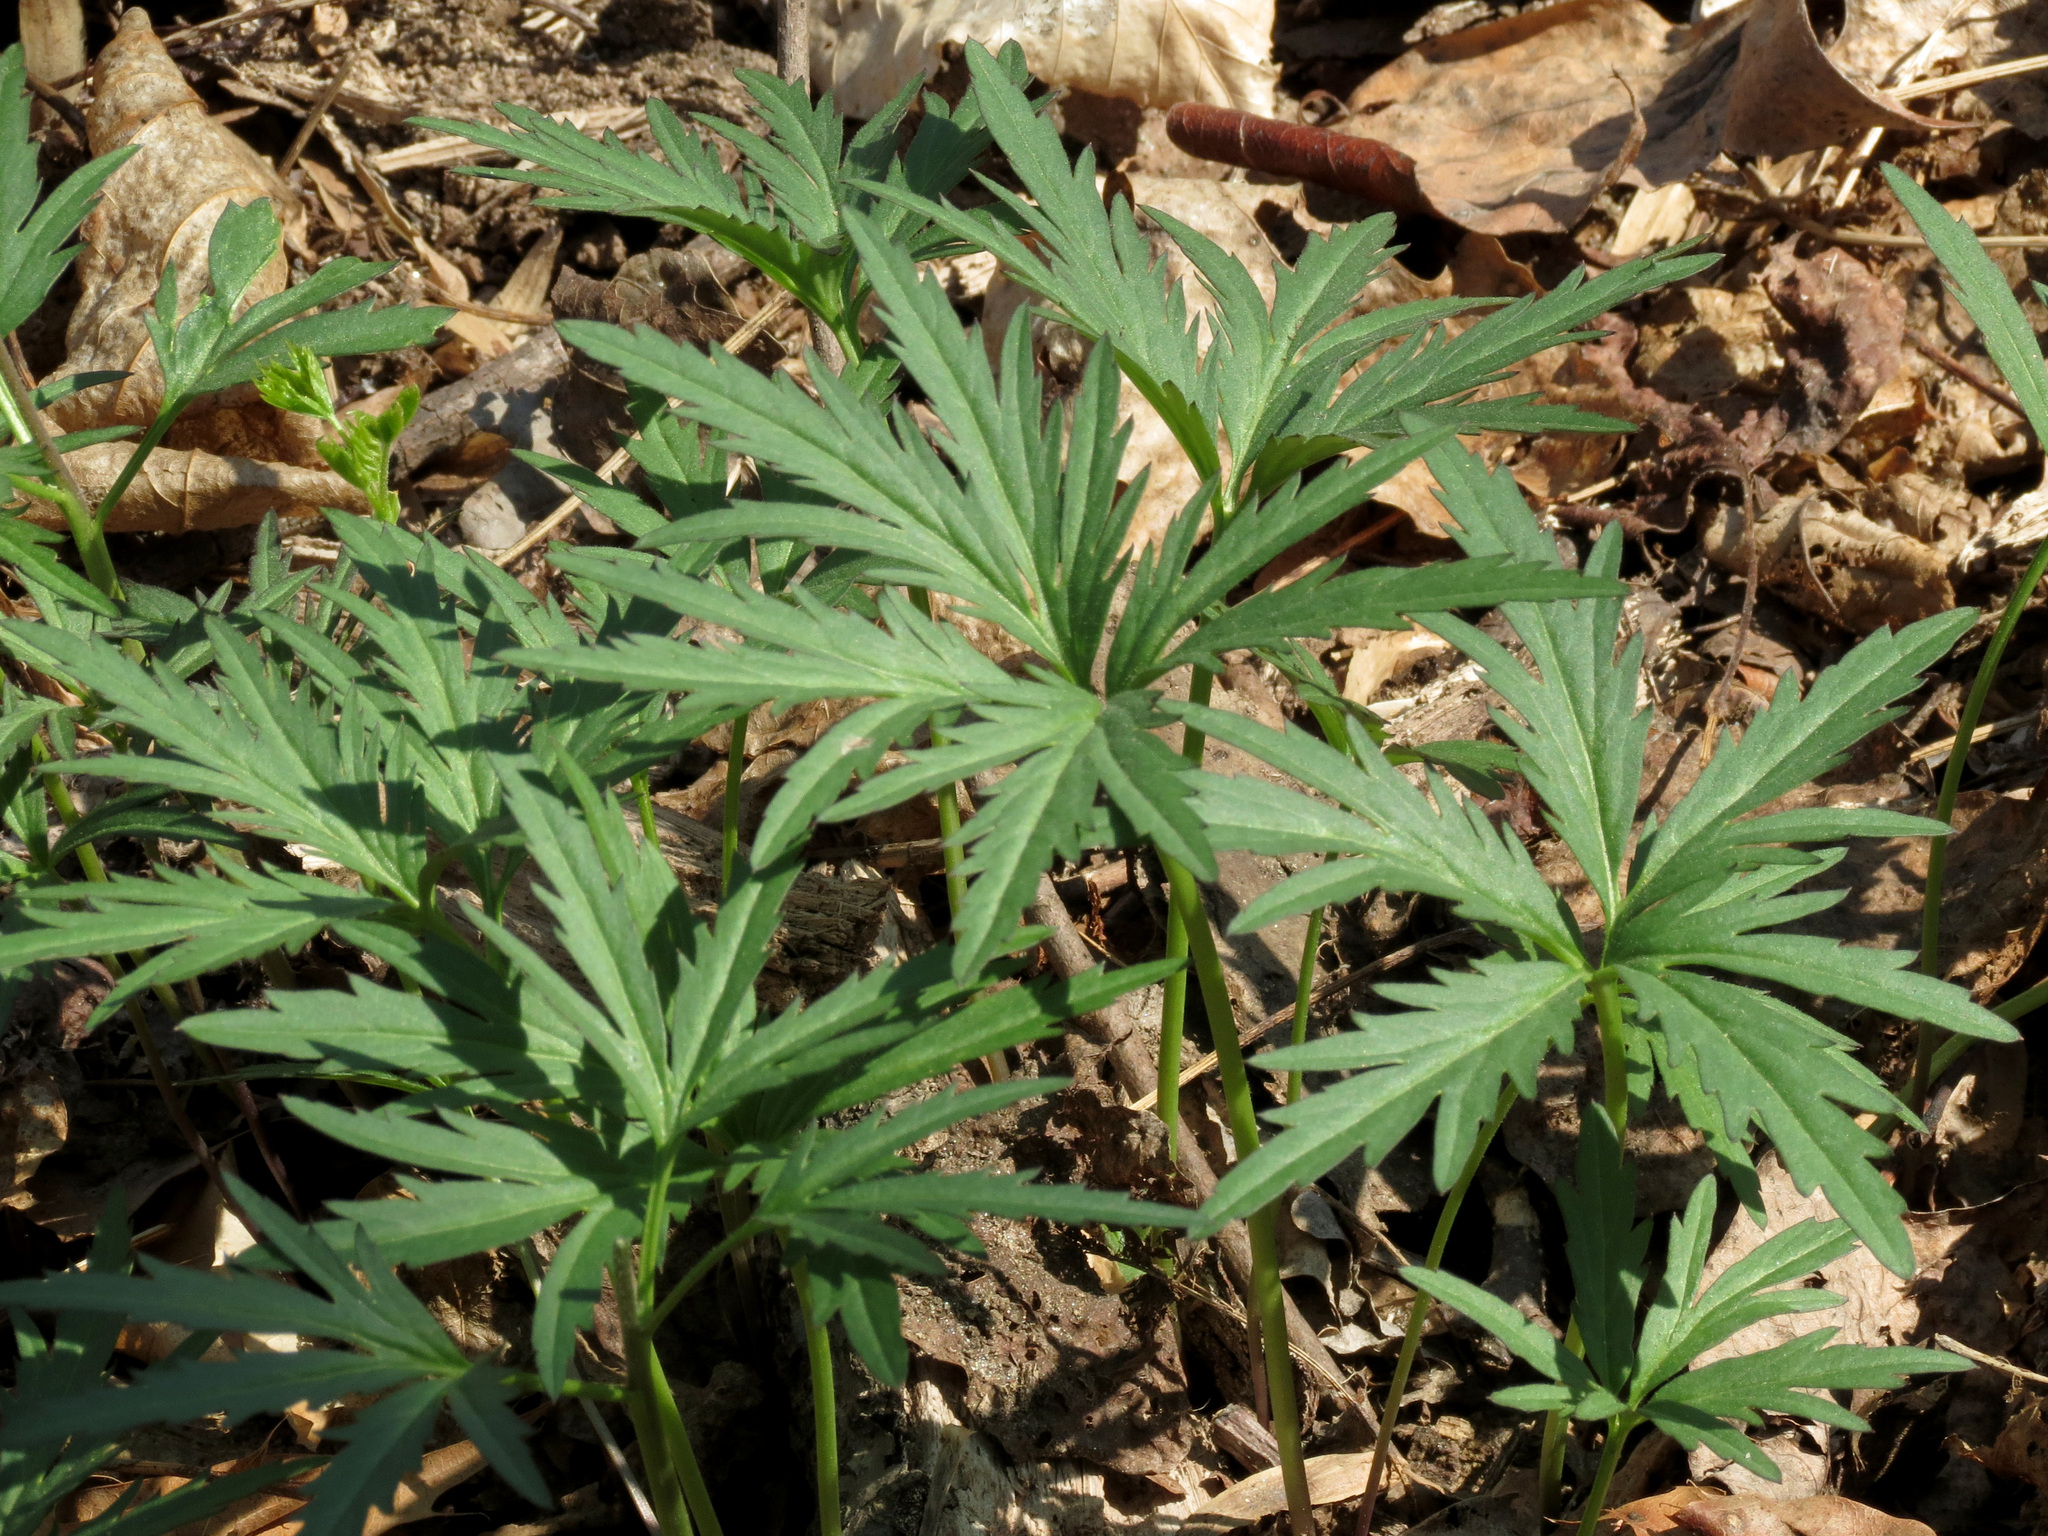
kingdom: Plantae
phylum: Tracheophyta
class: Magnoliopsida
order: Brassicales
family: Brassicaceae
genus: Cardamine
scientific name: Cardamine concatenata
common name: Cut-leaf toothcup
